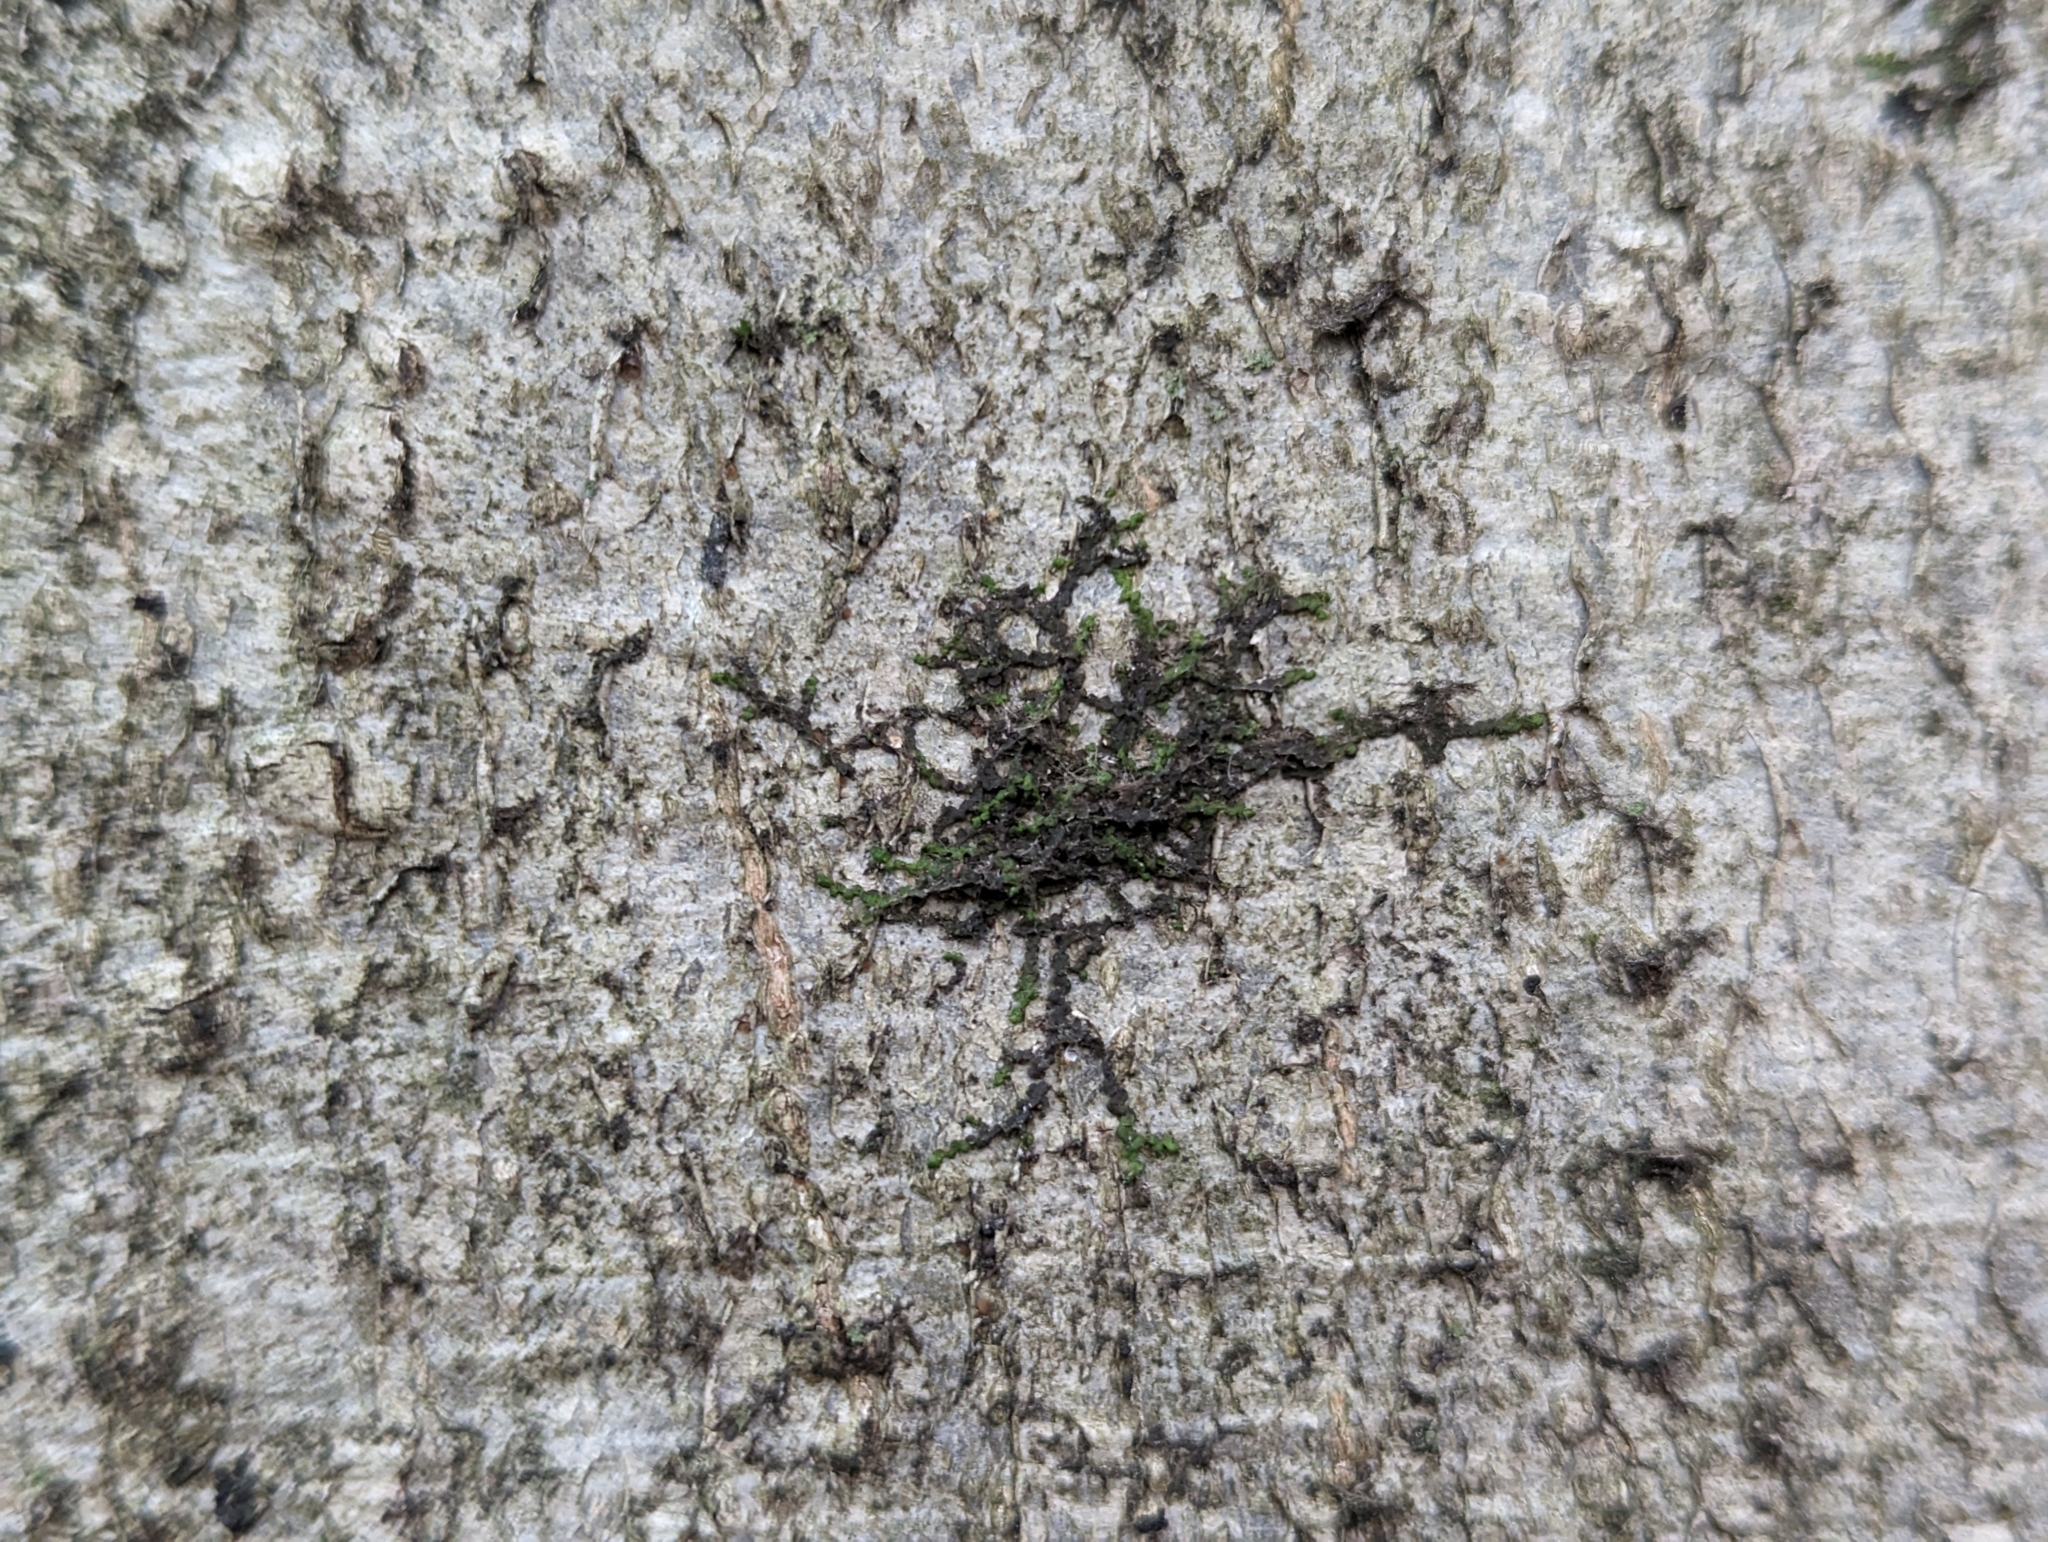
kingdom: Plantae
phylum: Marchantiophyta
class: Jungermanniopsida
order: Porellales
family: Frullaniaceae
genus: Frullania
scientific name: Frullania dilatata
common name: Dilated scalewort
